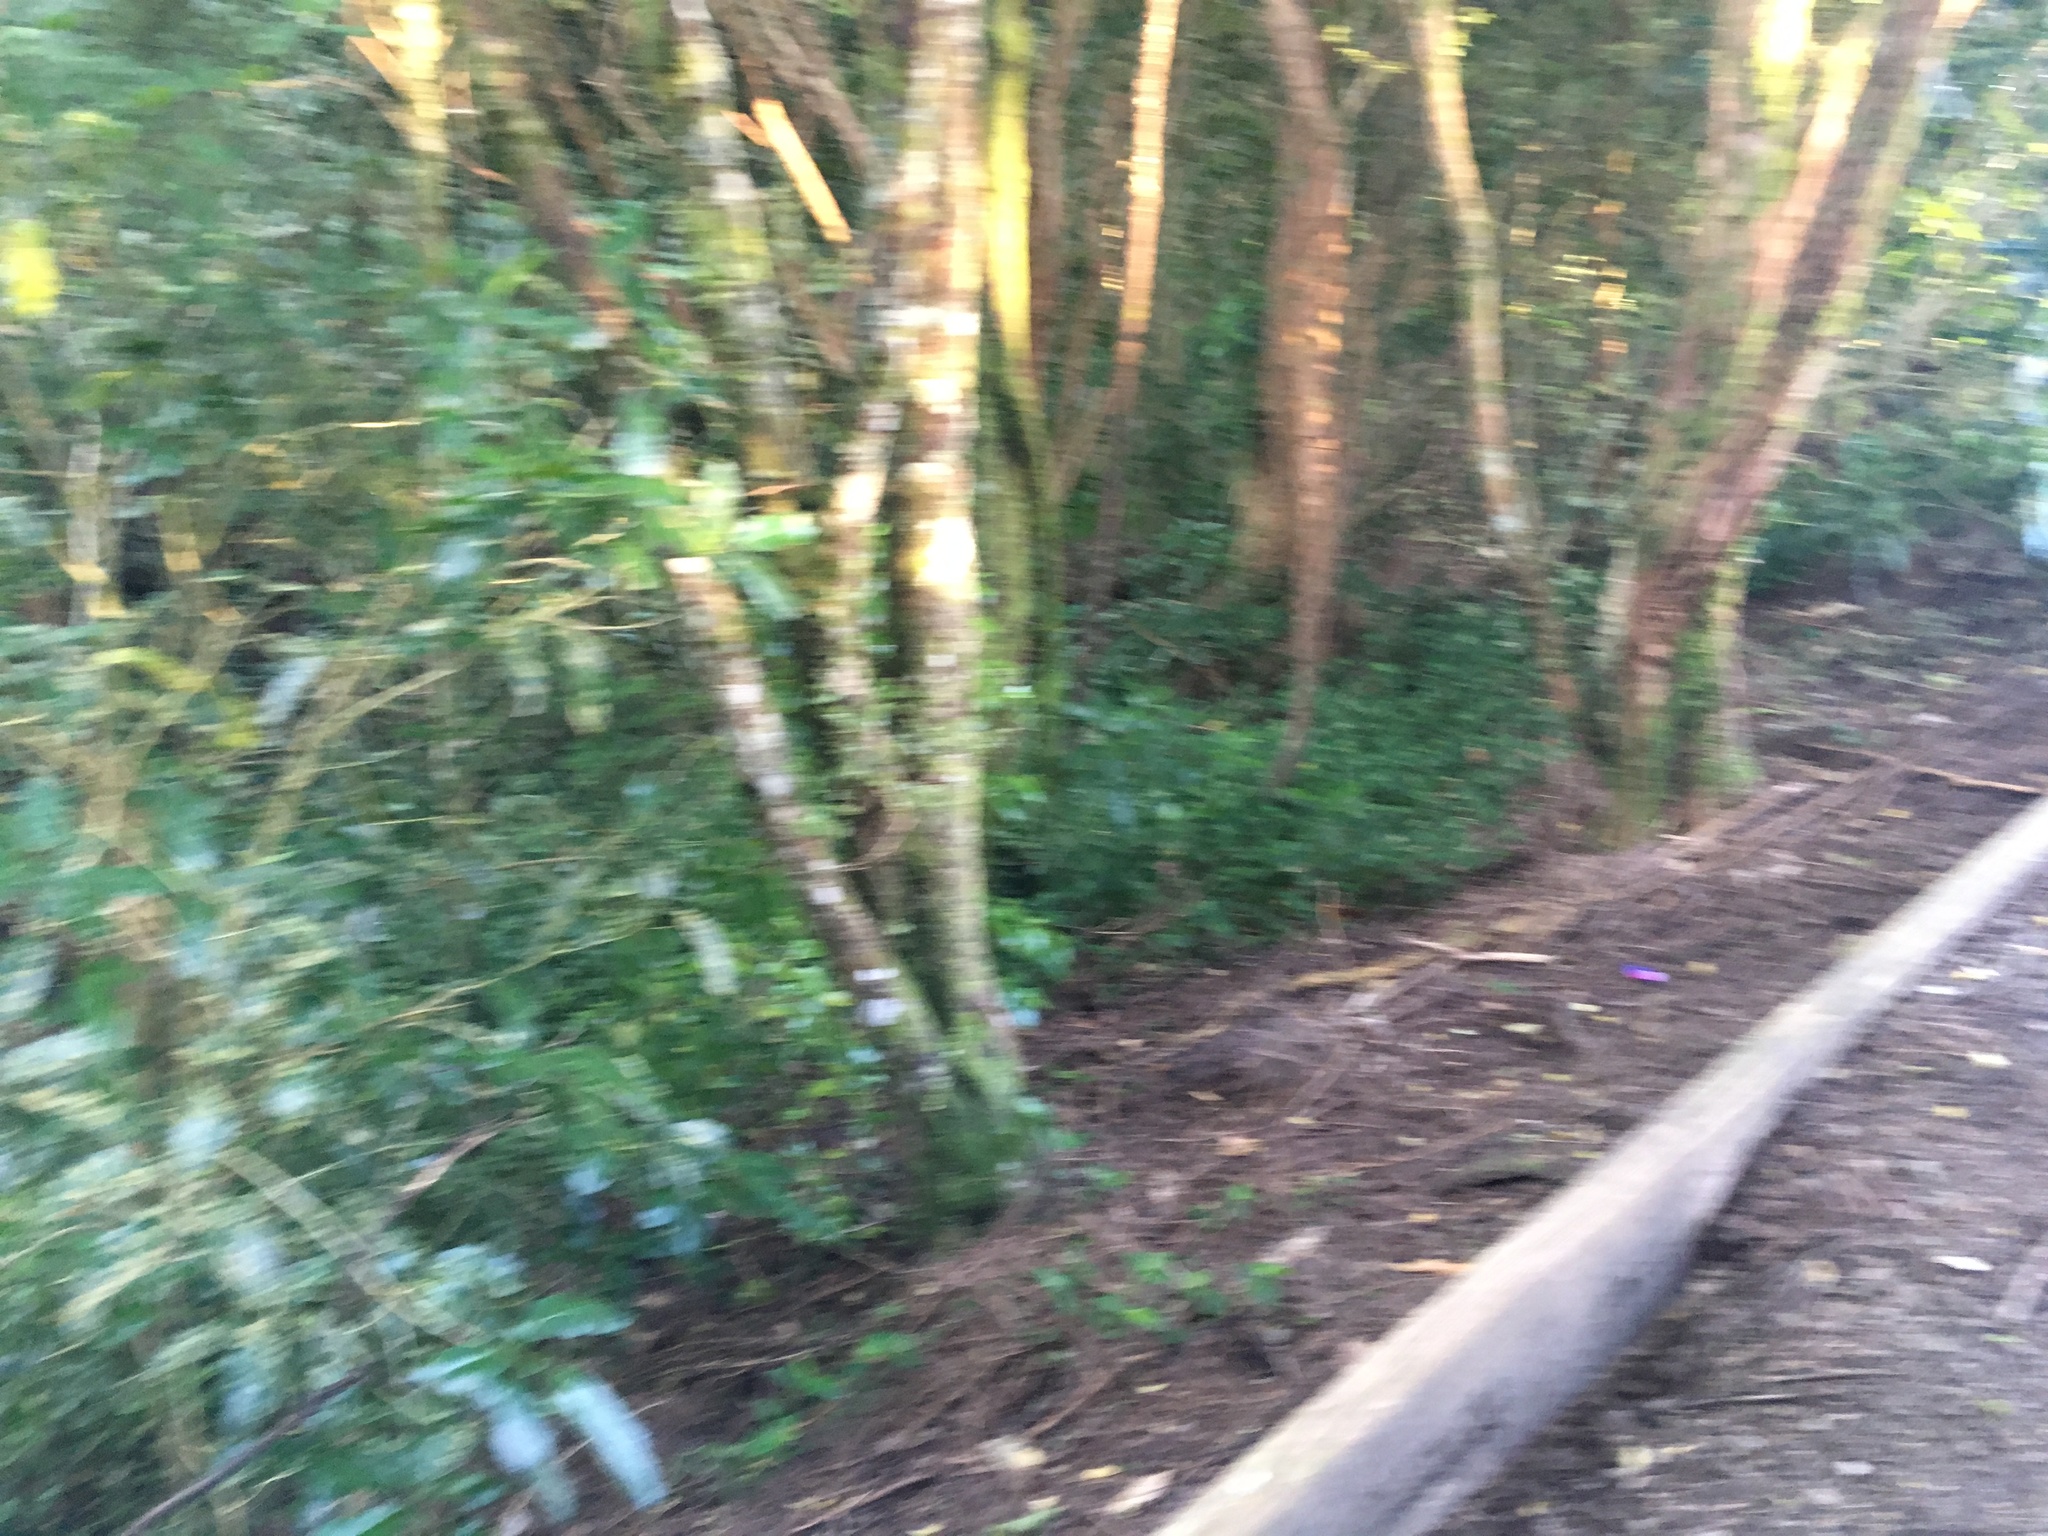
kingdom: Plantae
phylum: Tracheophyta
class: Magnoliopsida
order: Malpighiales
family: Violaceae
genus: Melicytus
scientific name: Melicytus ramiflorus
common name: Mahoe
